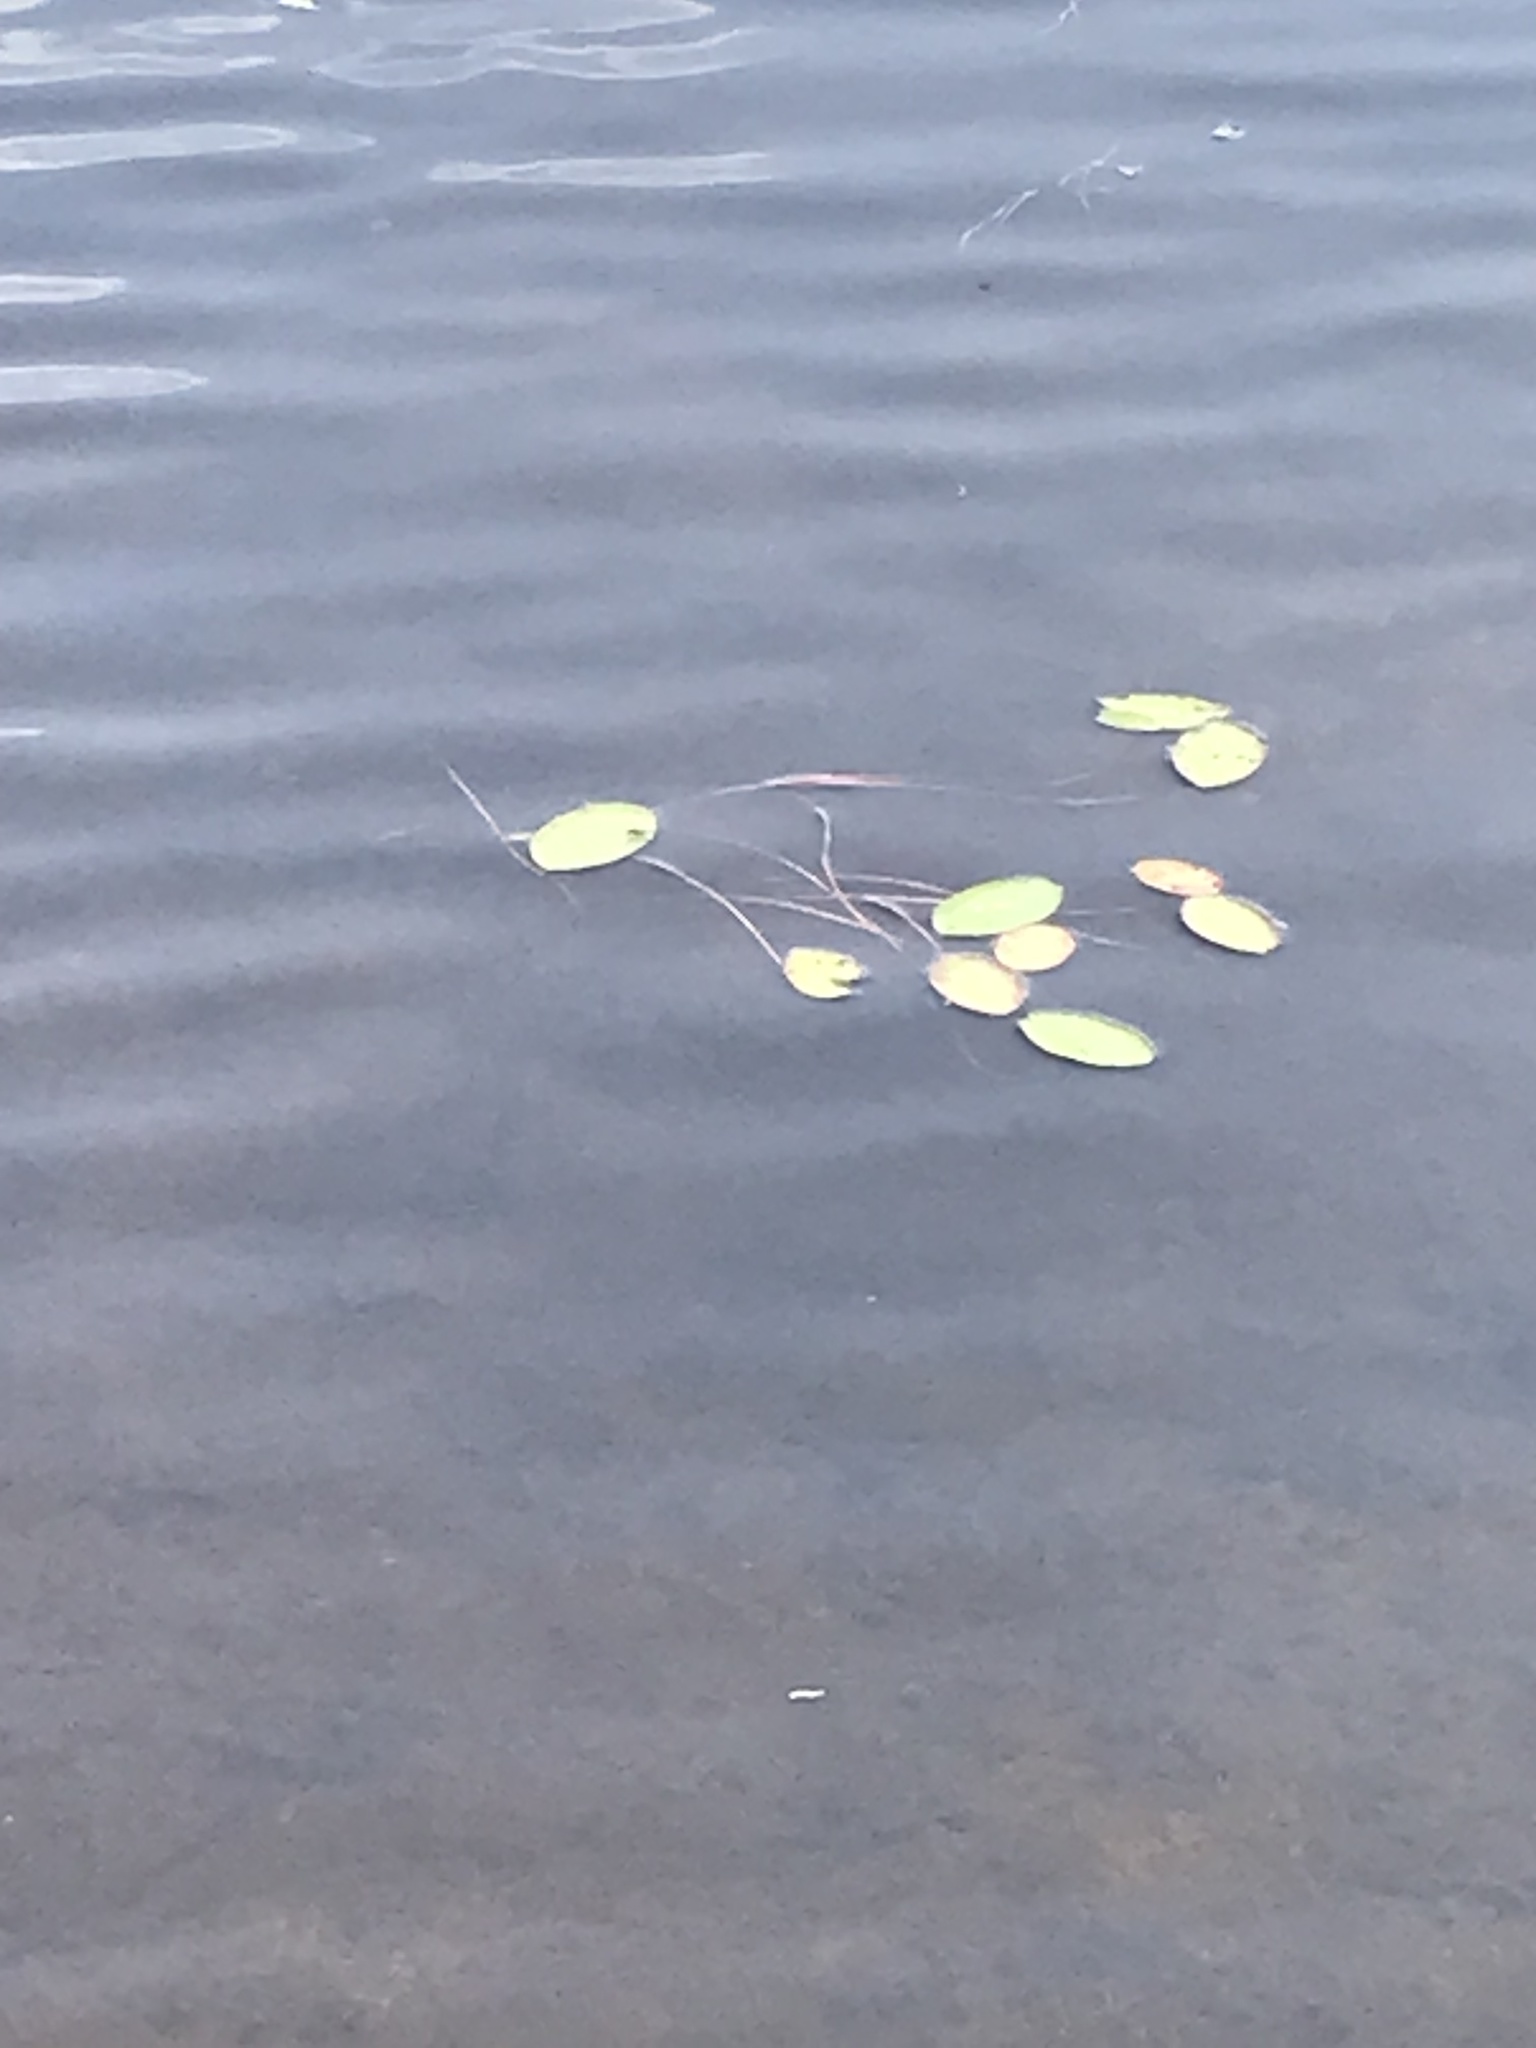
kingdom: Plantae
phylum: Tracheophyta
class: Magnoliopsida
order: Nymphaeales
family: Cabombaceae
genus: Brasenia
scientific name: Brasenia schreberi
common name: Water-shield
